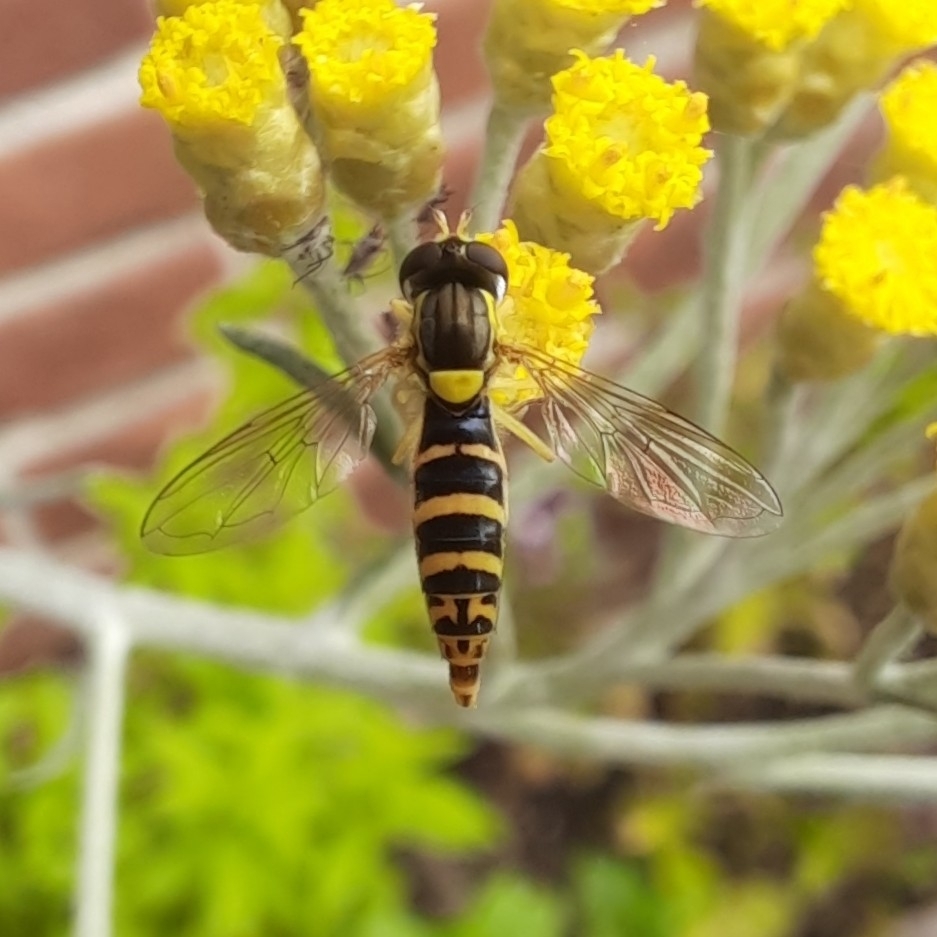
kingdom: Animalia
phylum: Arthropoda
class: Insecta
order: Diptera
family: Syrphidae
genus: Sphaerophoria
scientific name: Sphaerophoria scripta
